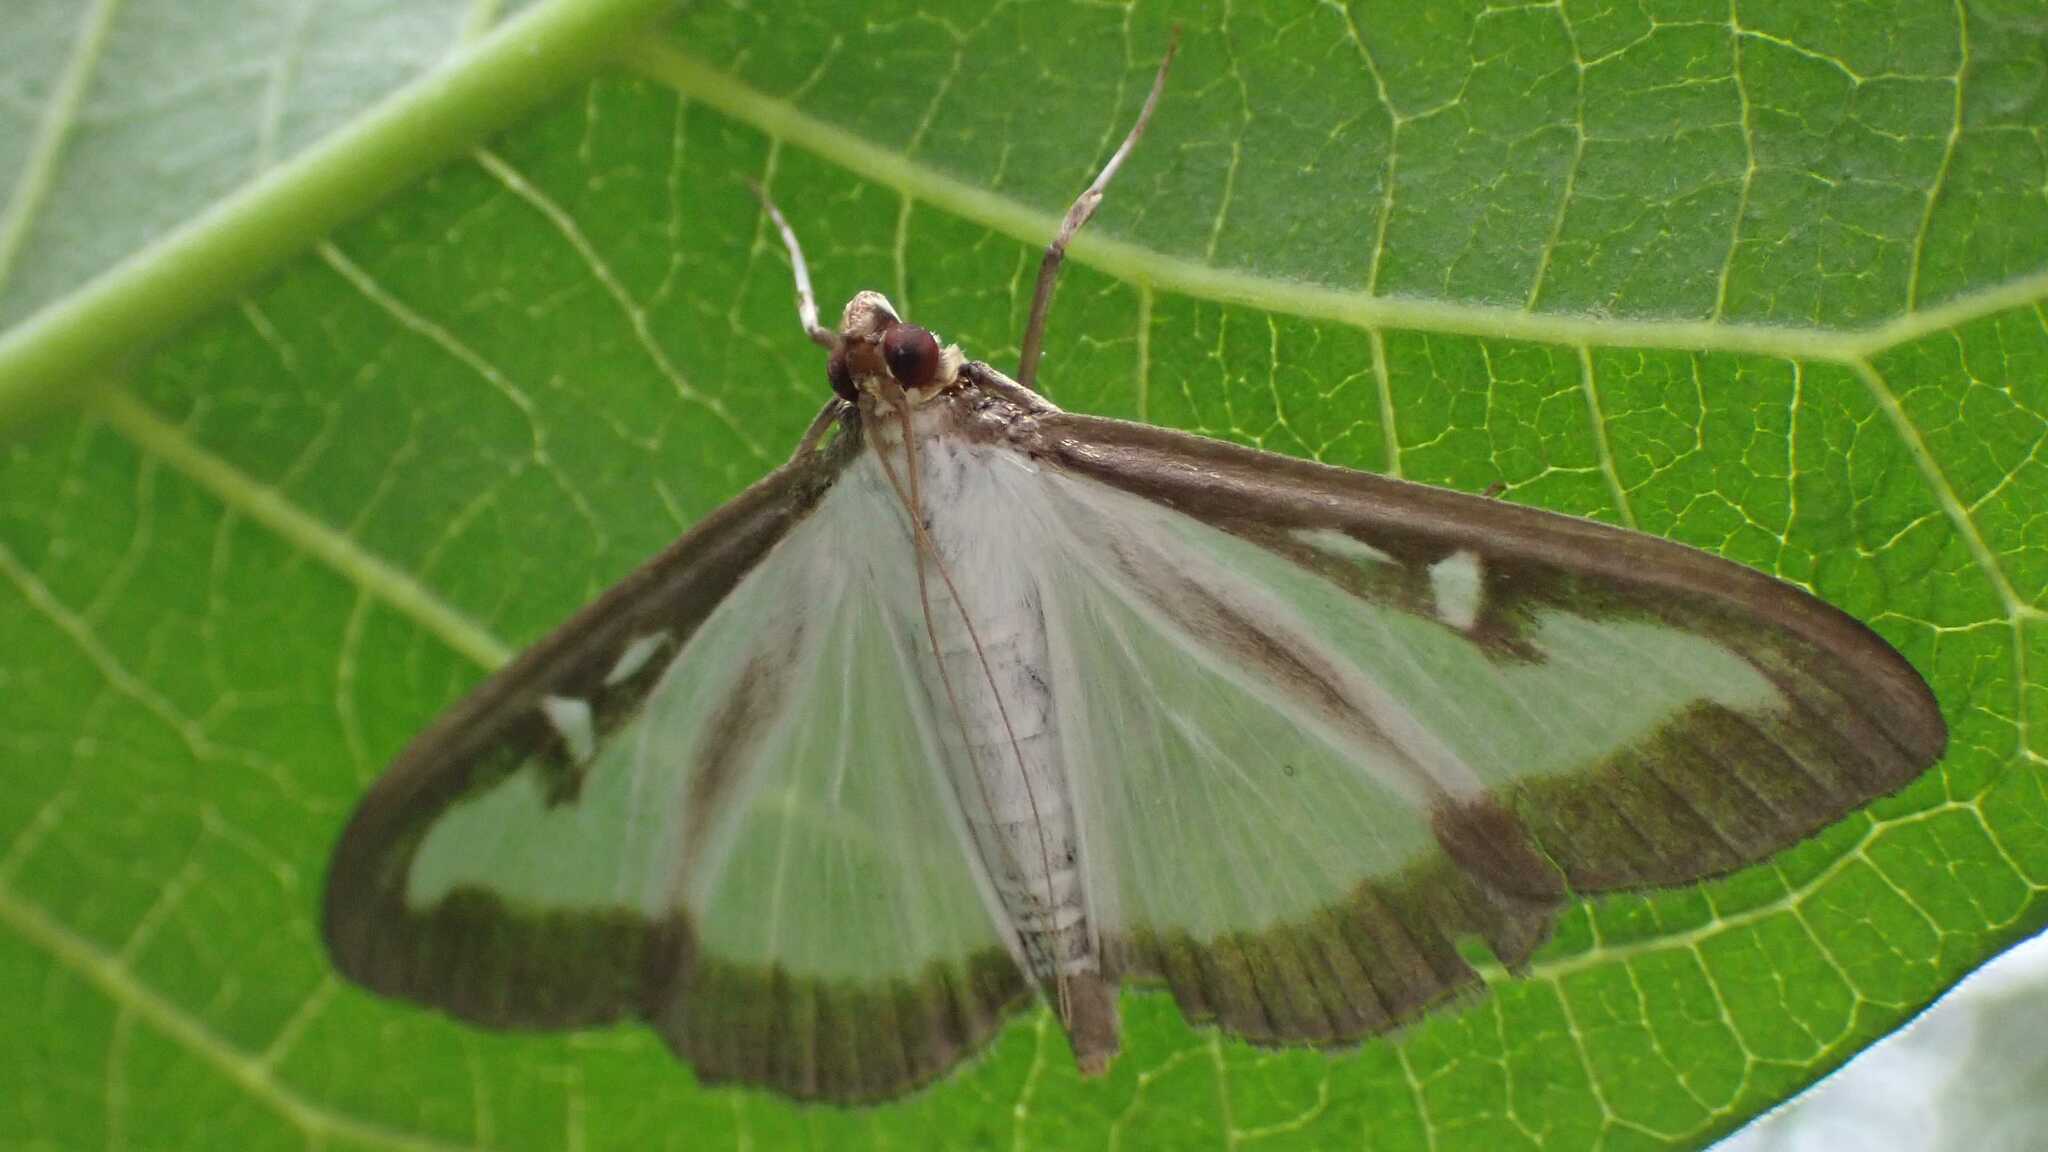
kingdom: Animalia
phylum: Arthropoda
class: Insecta
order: Lepidoptera
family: Crambidae
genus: Cydalima
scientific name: Cydalima perspectalis
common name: Box tree moth
